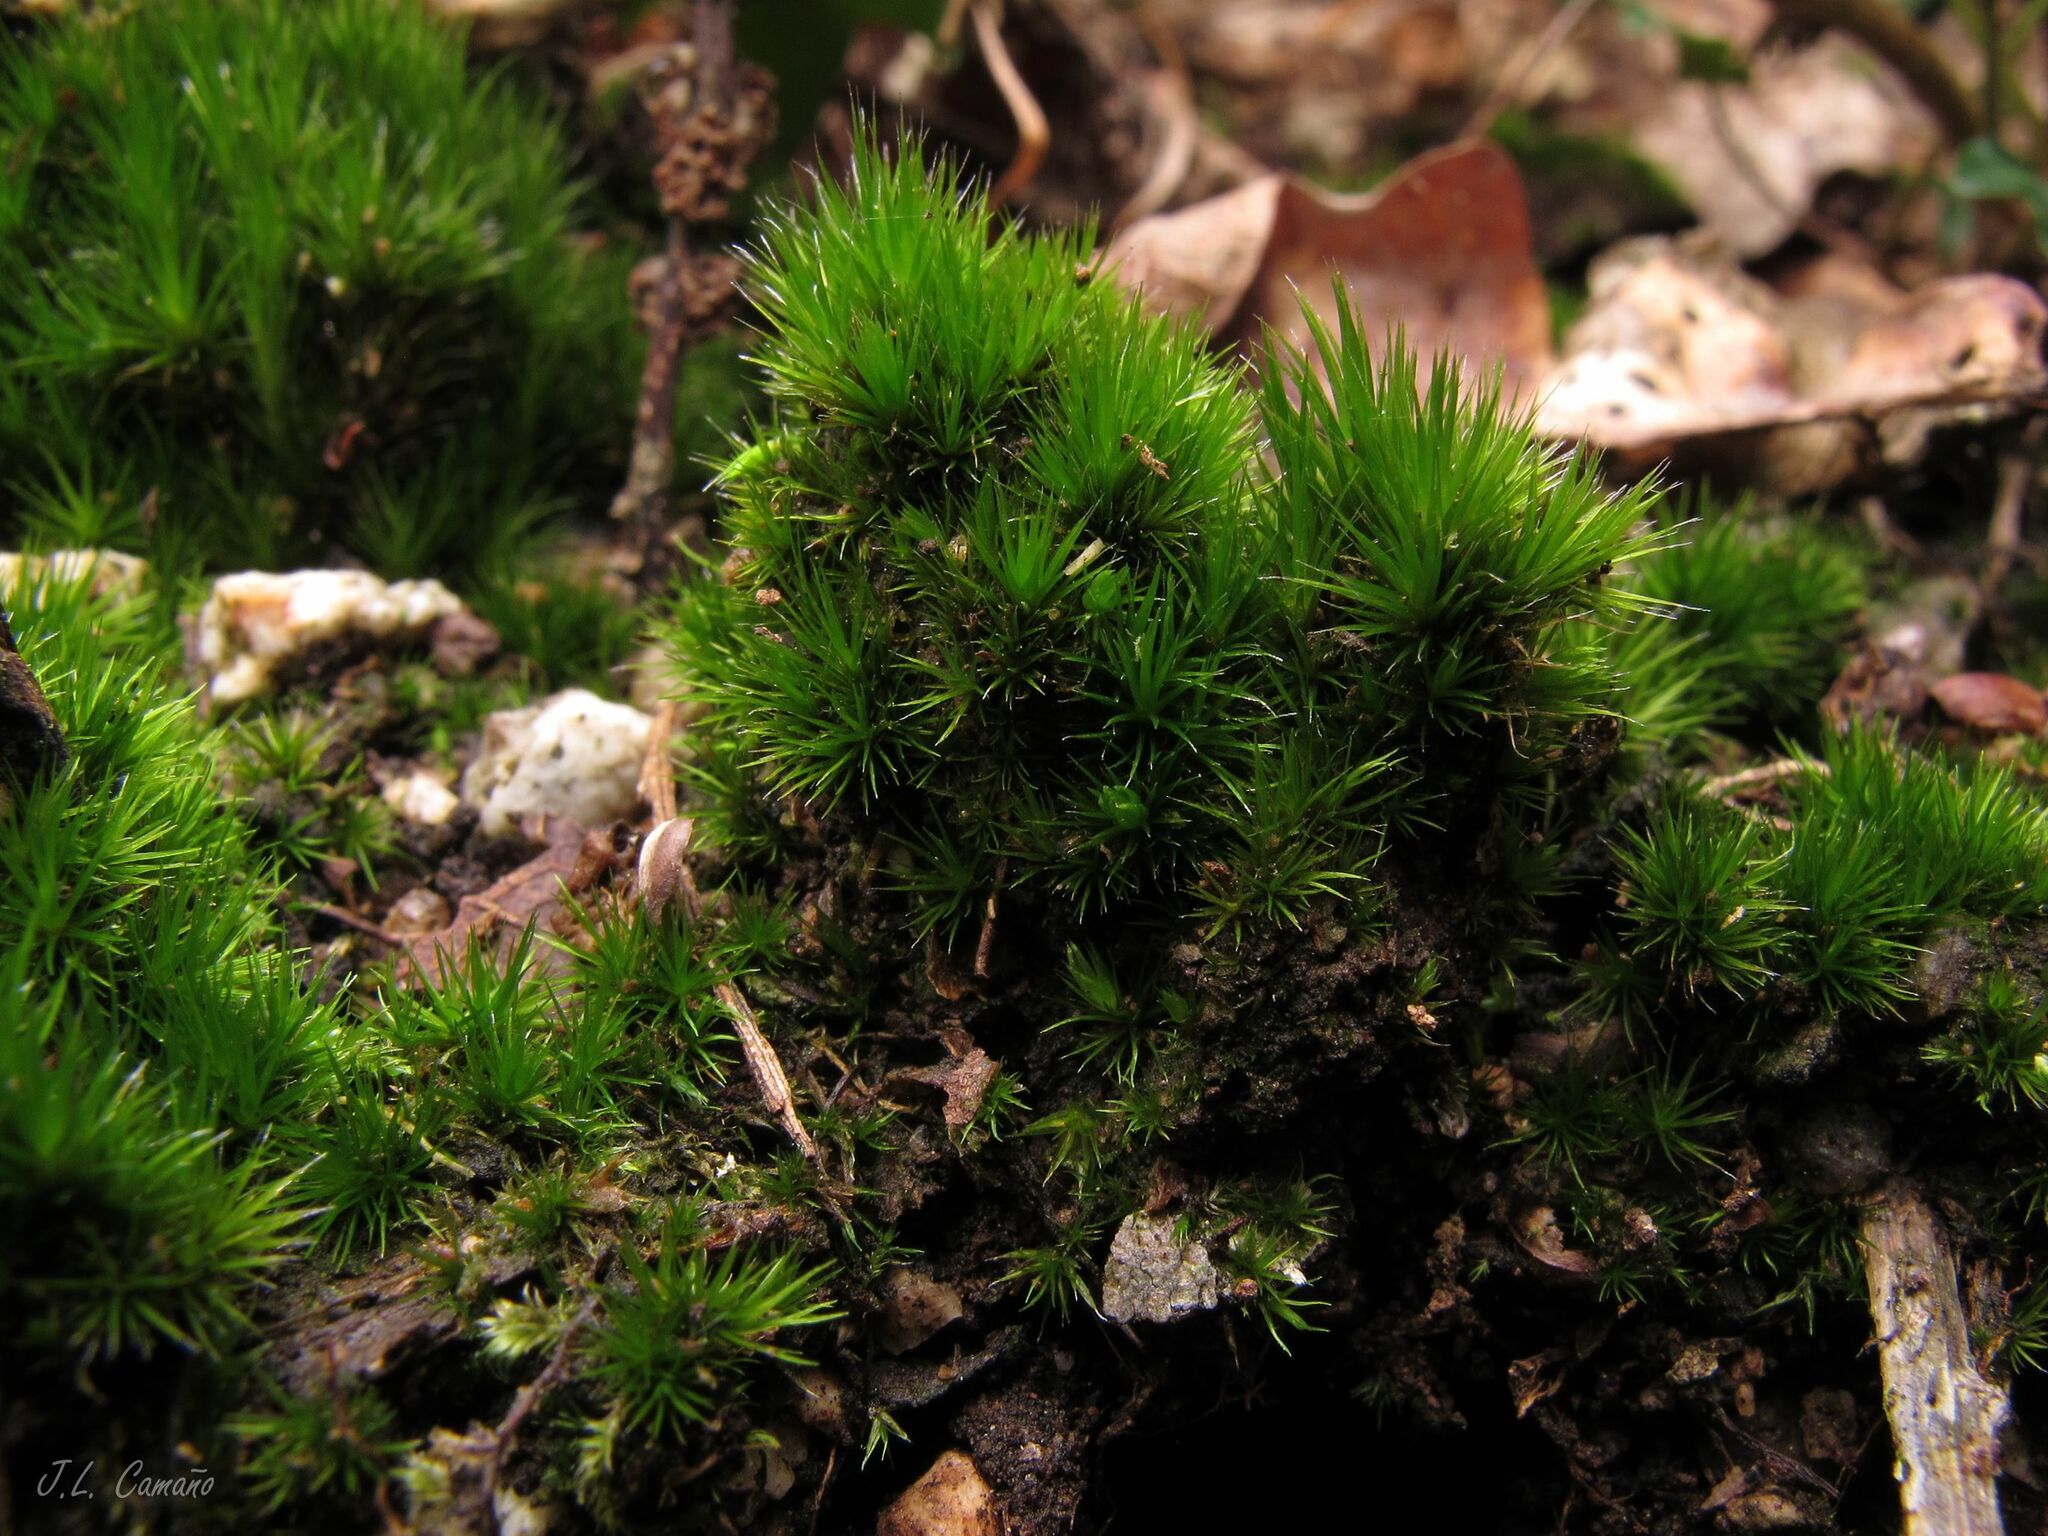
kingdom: Plantae
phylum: Bryophyta
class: Bryopsida
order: Dicranales
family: Leucobryaceae
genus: Campylopus
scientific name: Campylopus introflexus
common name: Heath star moss
